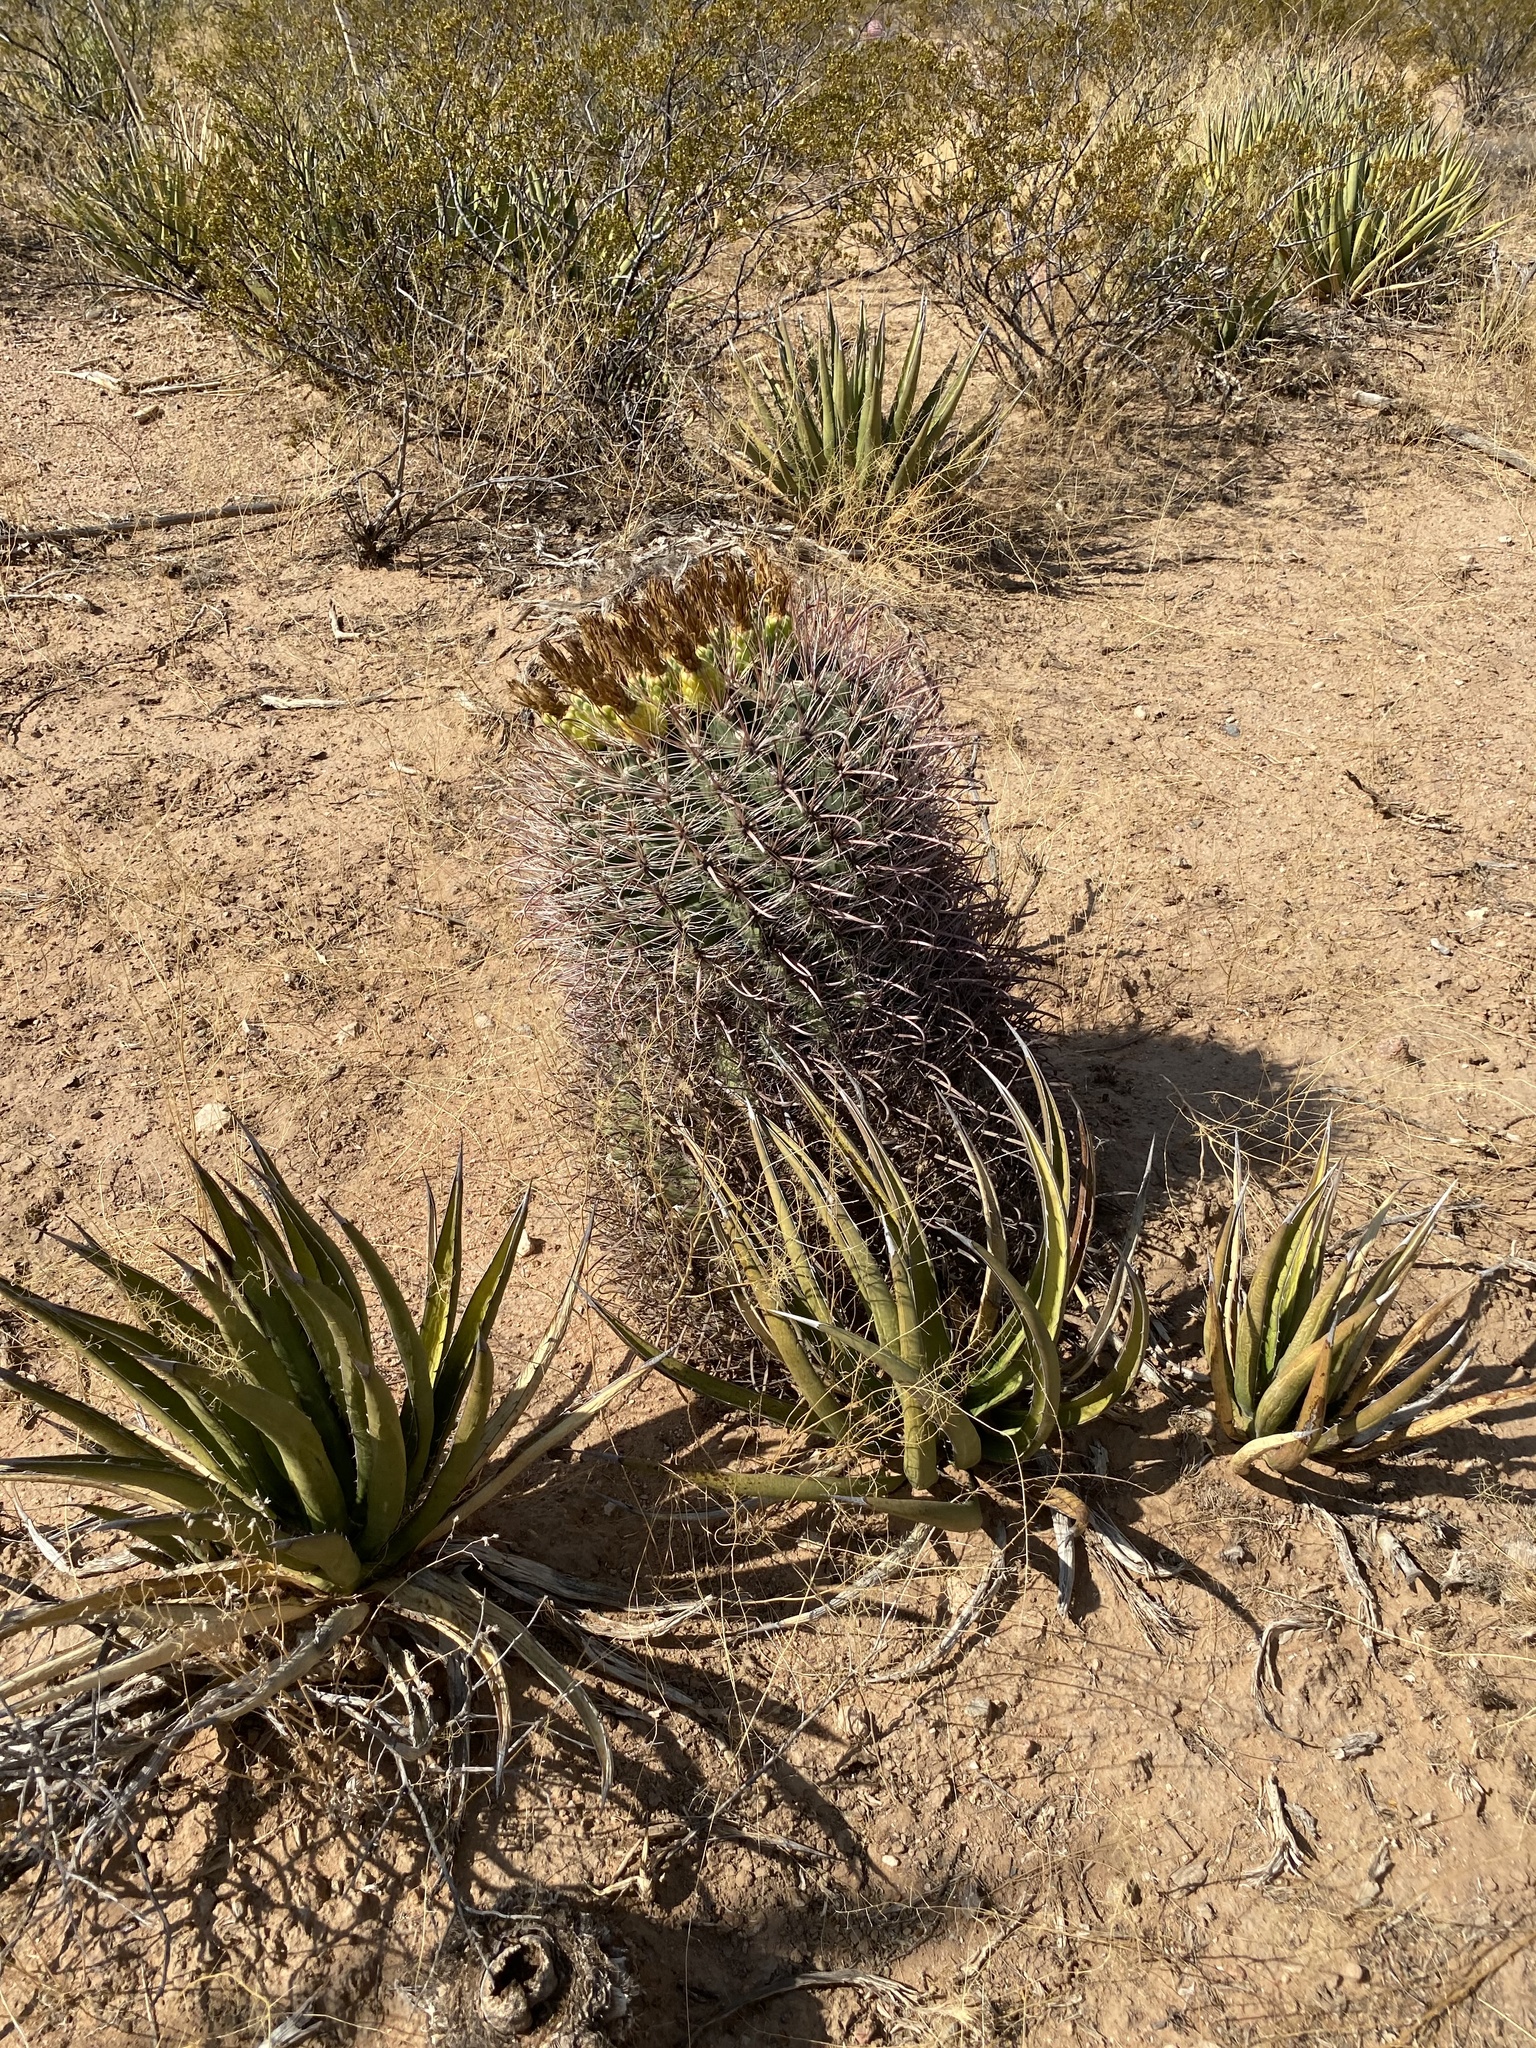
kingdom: Plantae
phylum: Tracheophyta
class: Magnoliopsida
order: Caryophyllales
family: Cactaceae
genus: Ferocactus
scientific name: Ferocactus wislizeni
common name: Candy barrel cactus
